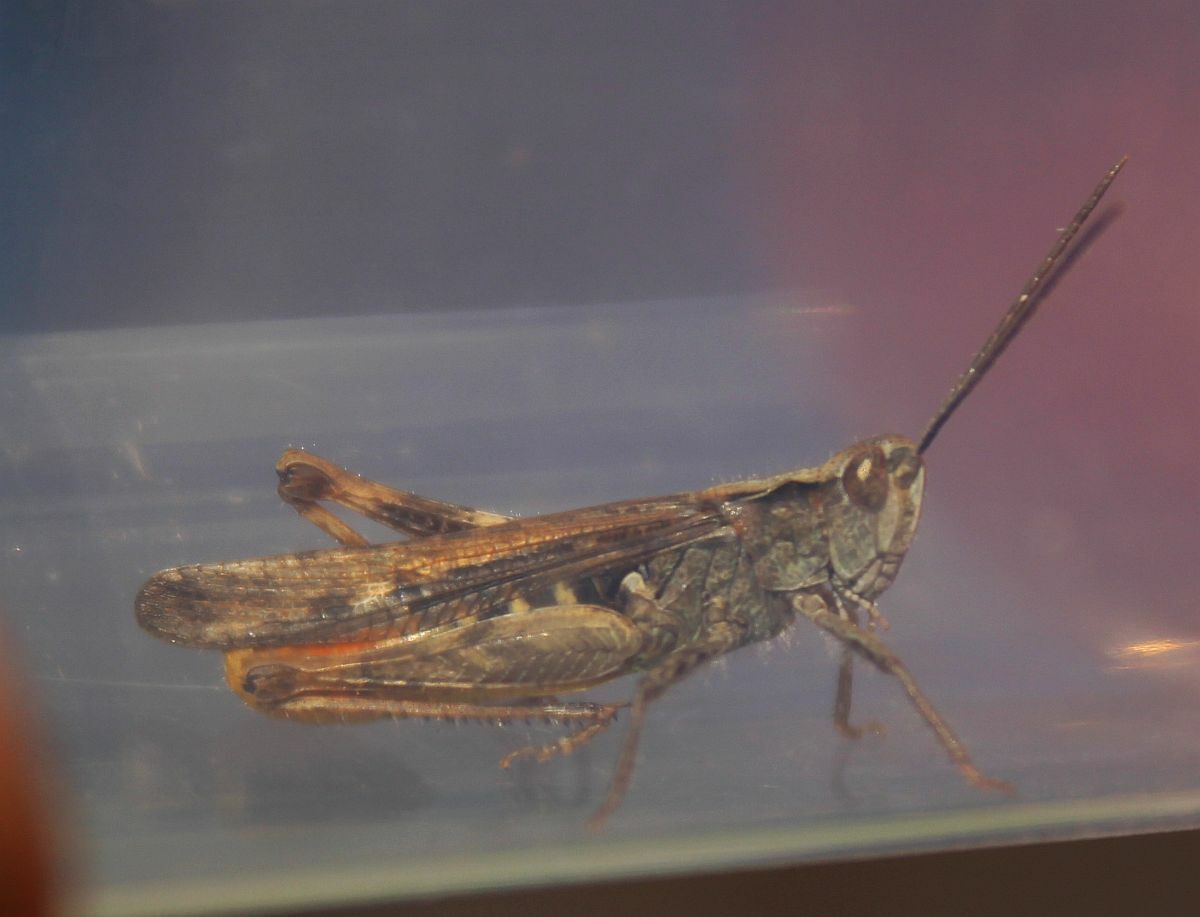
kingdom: Animalia
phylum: Arthropoda
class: Insecta
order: Orthoptera
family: Acrididae
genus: Chorthippus
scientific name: Chorthippus brunneus
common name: Field grasshopper
